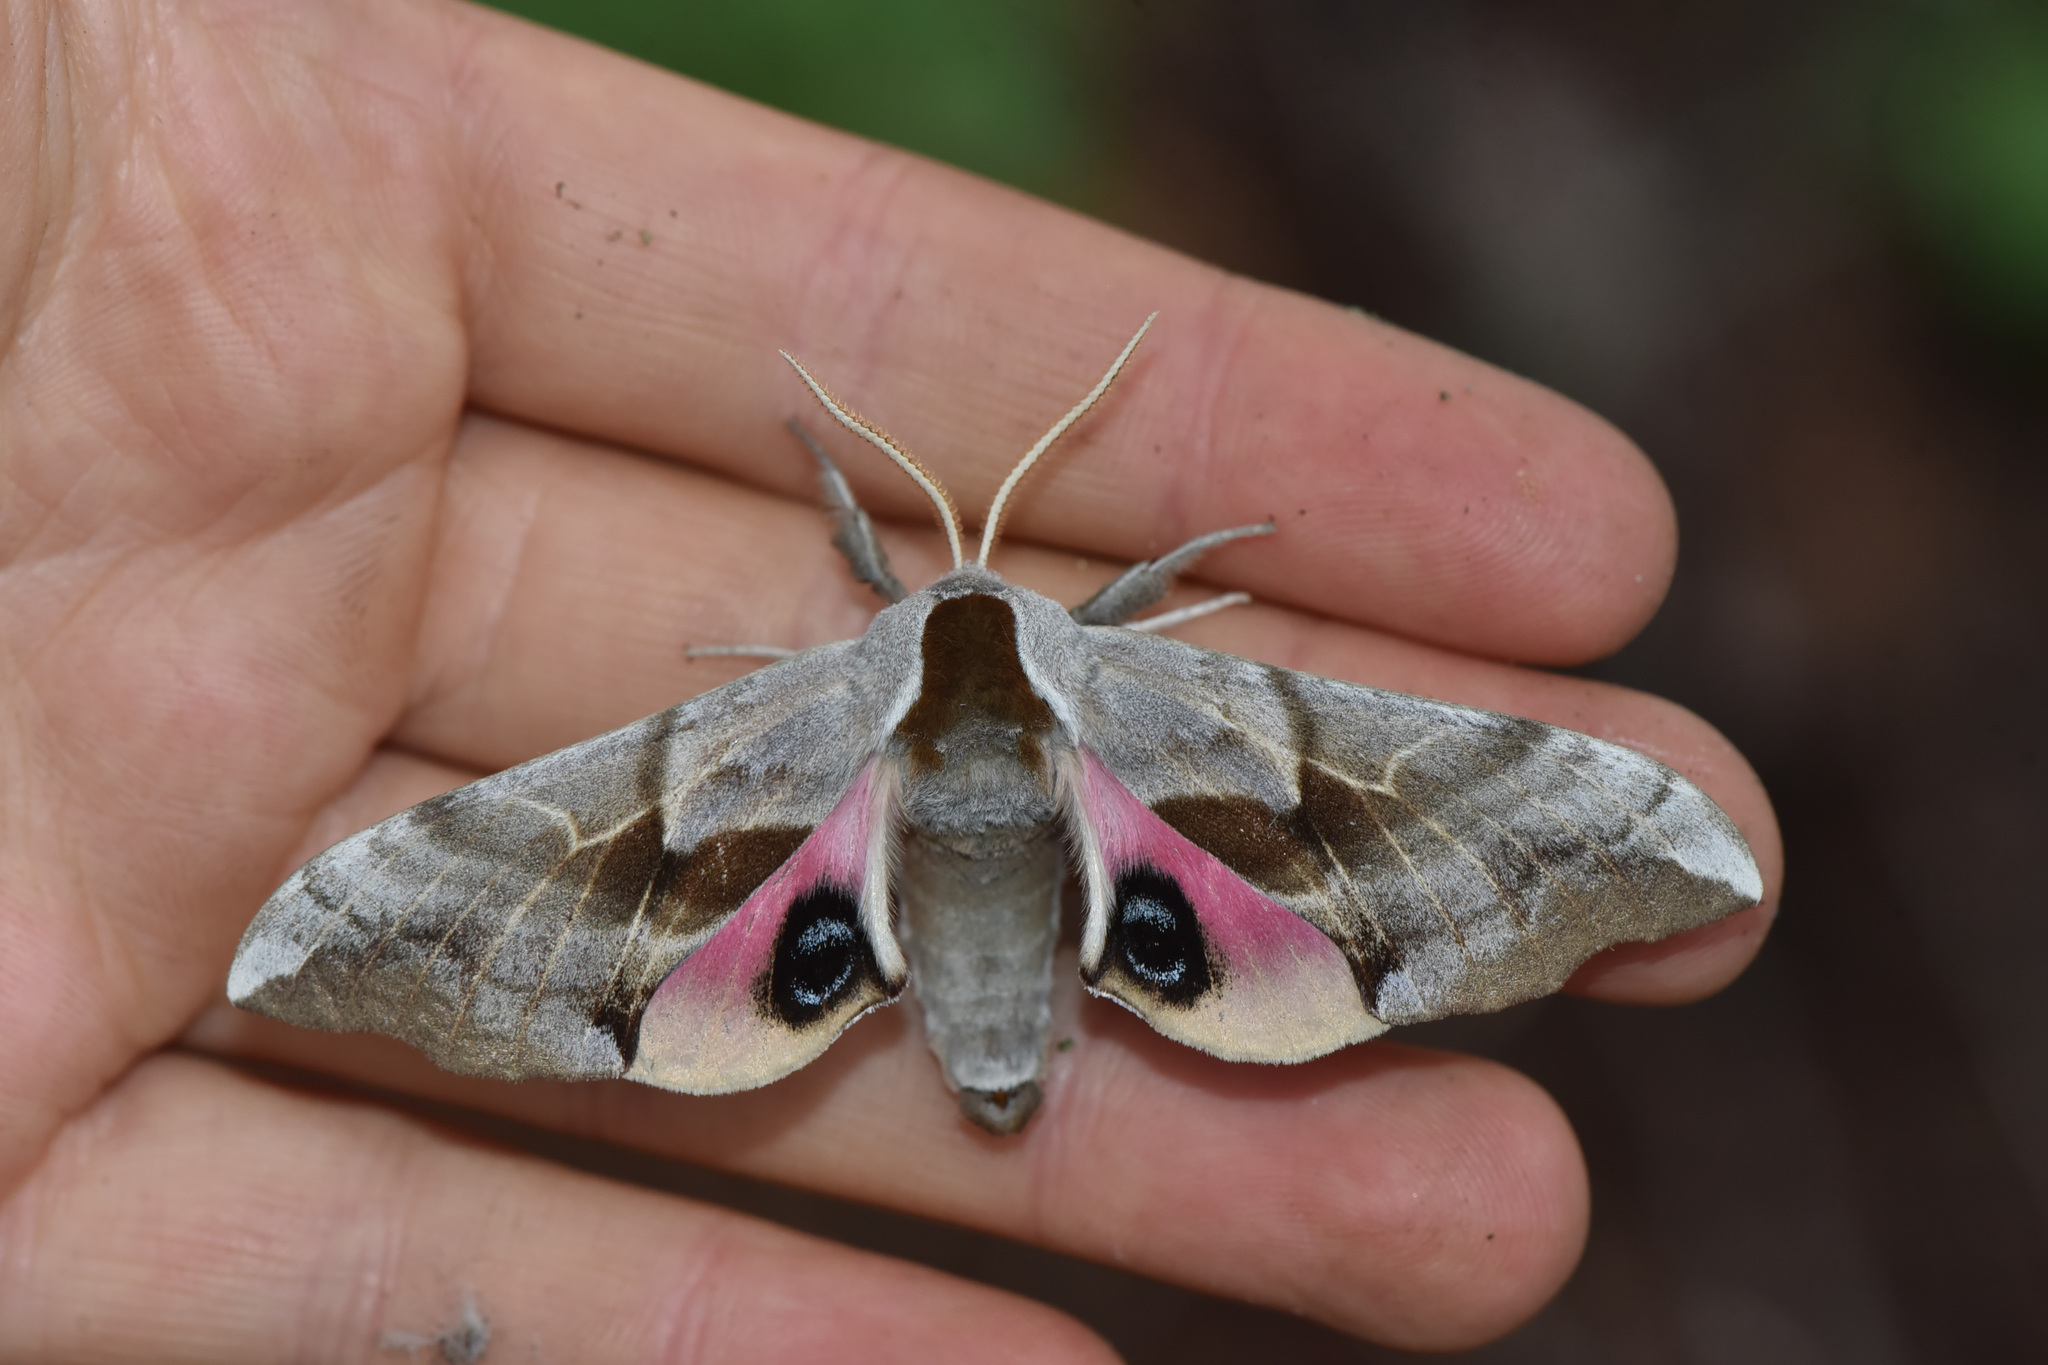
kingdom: Animalia
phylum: Arthropoda
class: Insecta
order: Lepidoptera
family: Sphingidae
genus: Smerinthus
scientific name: Smerinthus cerisyi
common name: Cerisy's sphinx moth
